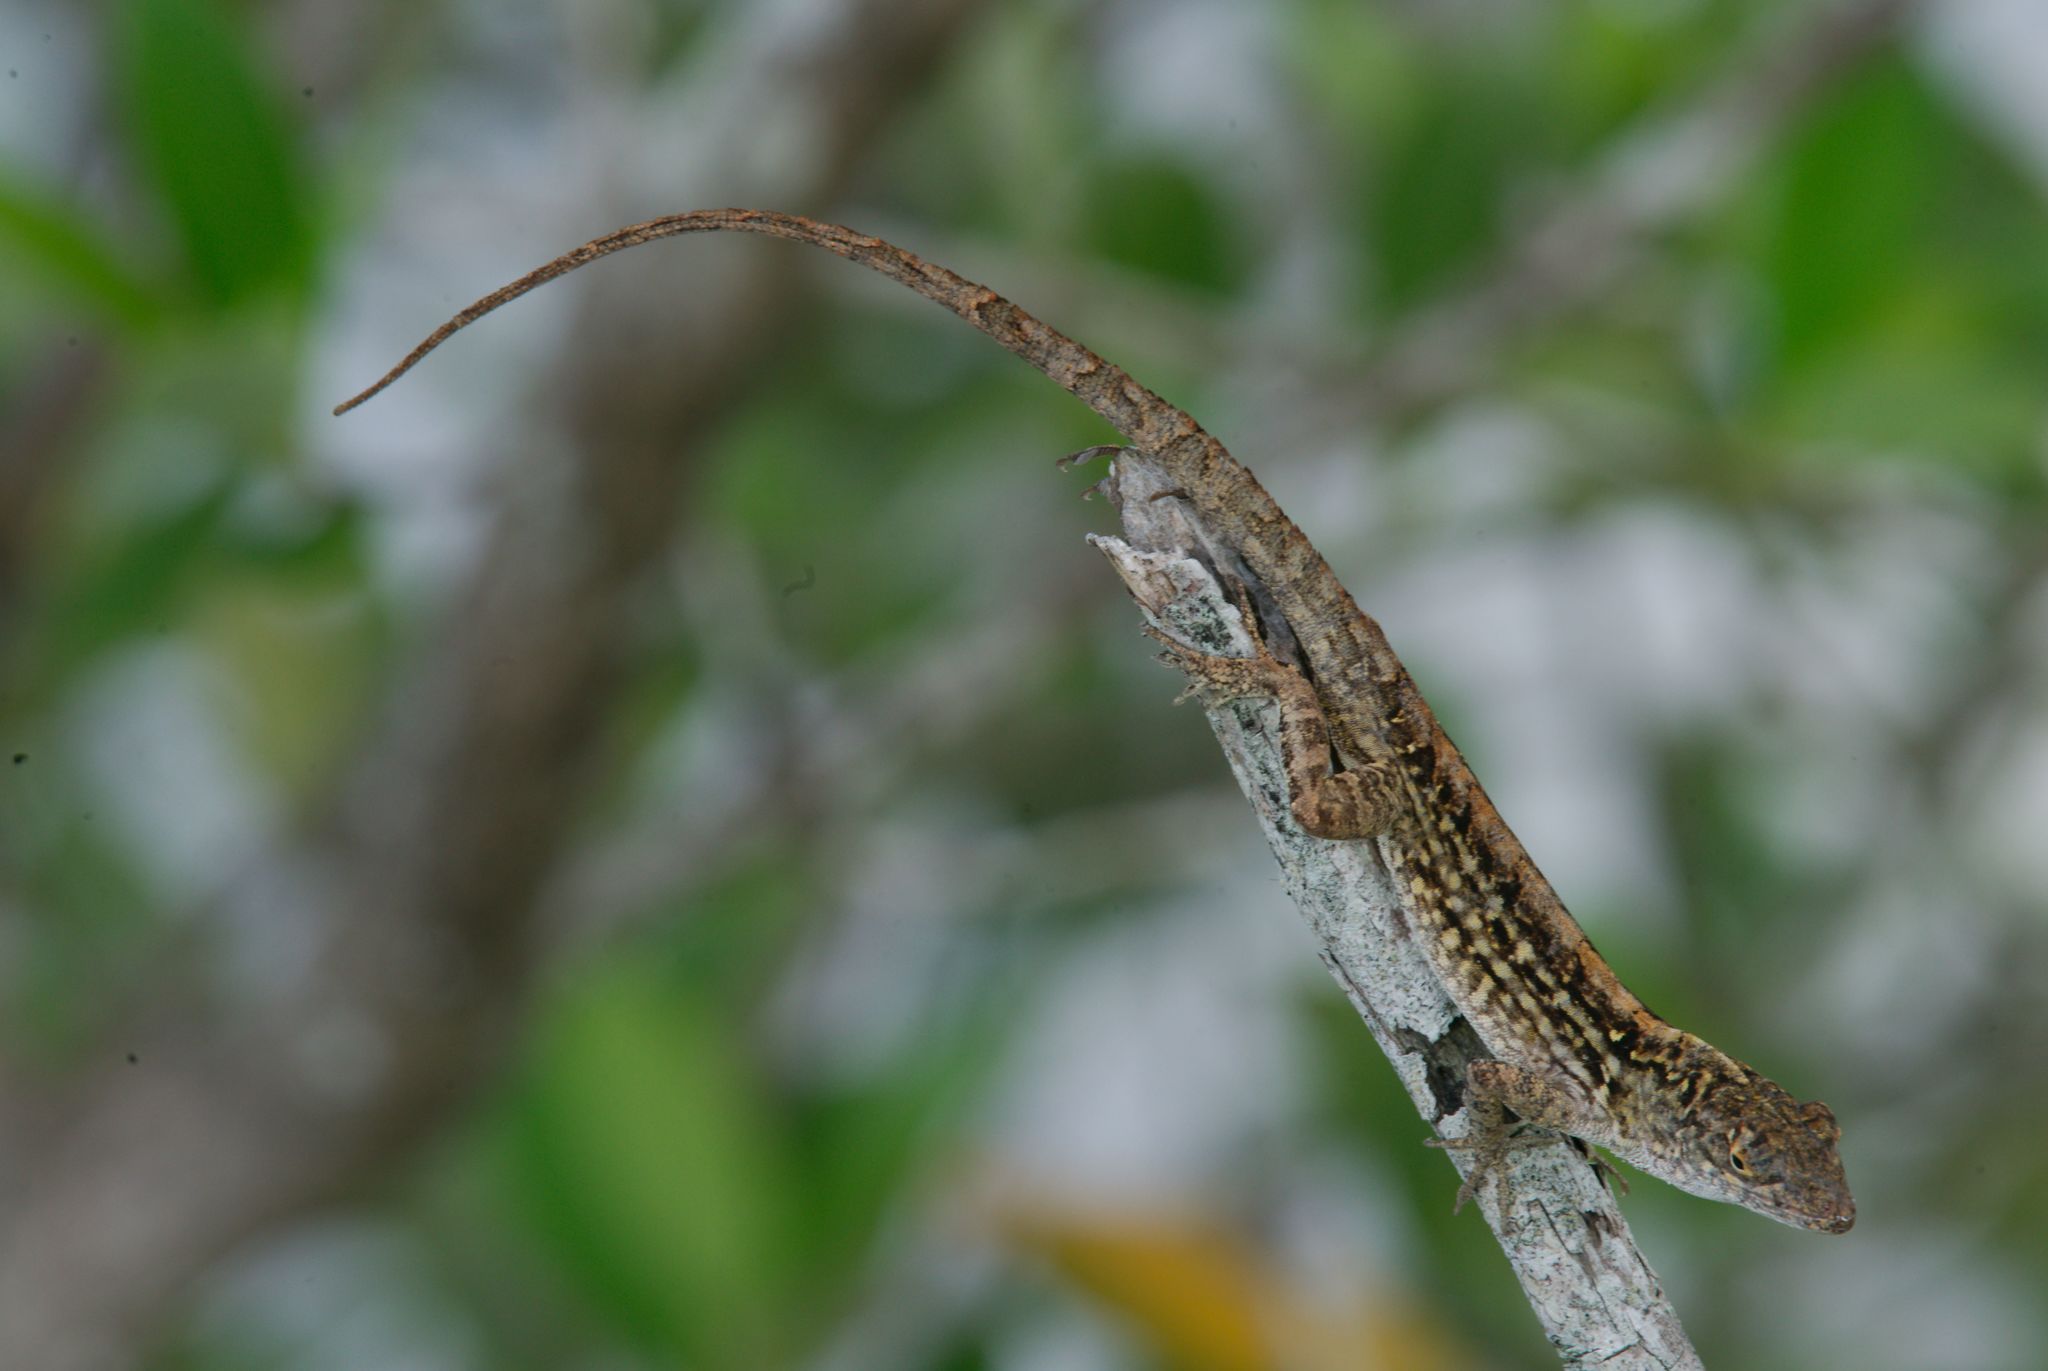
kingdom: Animalia
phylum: Chordata
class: Squamata
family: Dactyloidae
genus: Anolis
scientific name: Anolis sagrei
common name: Brown anole
